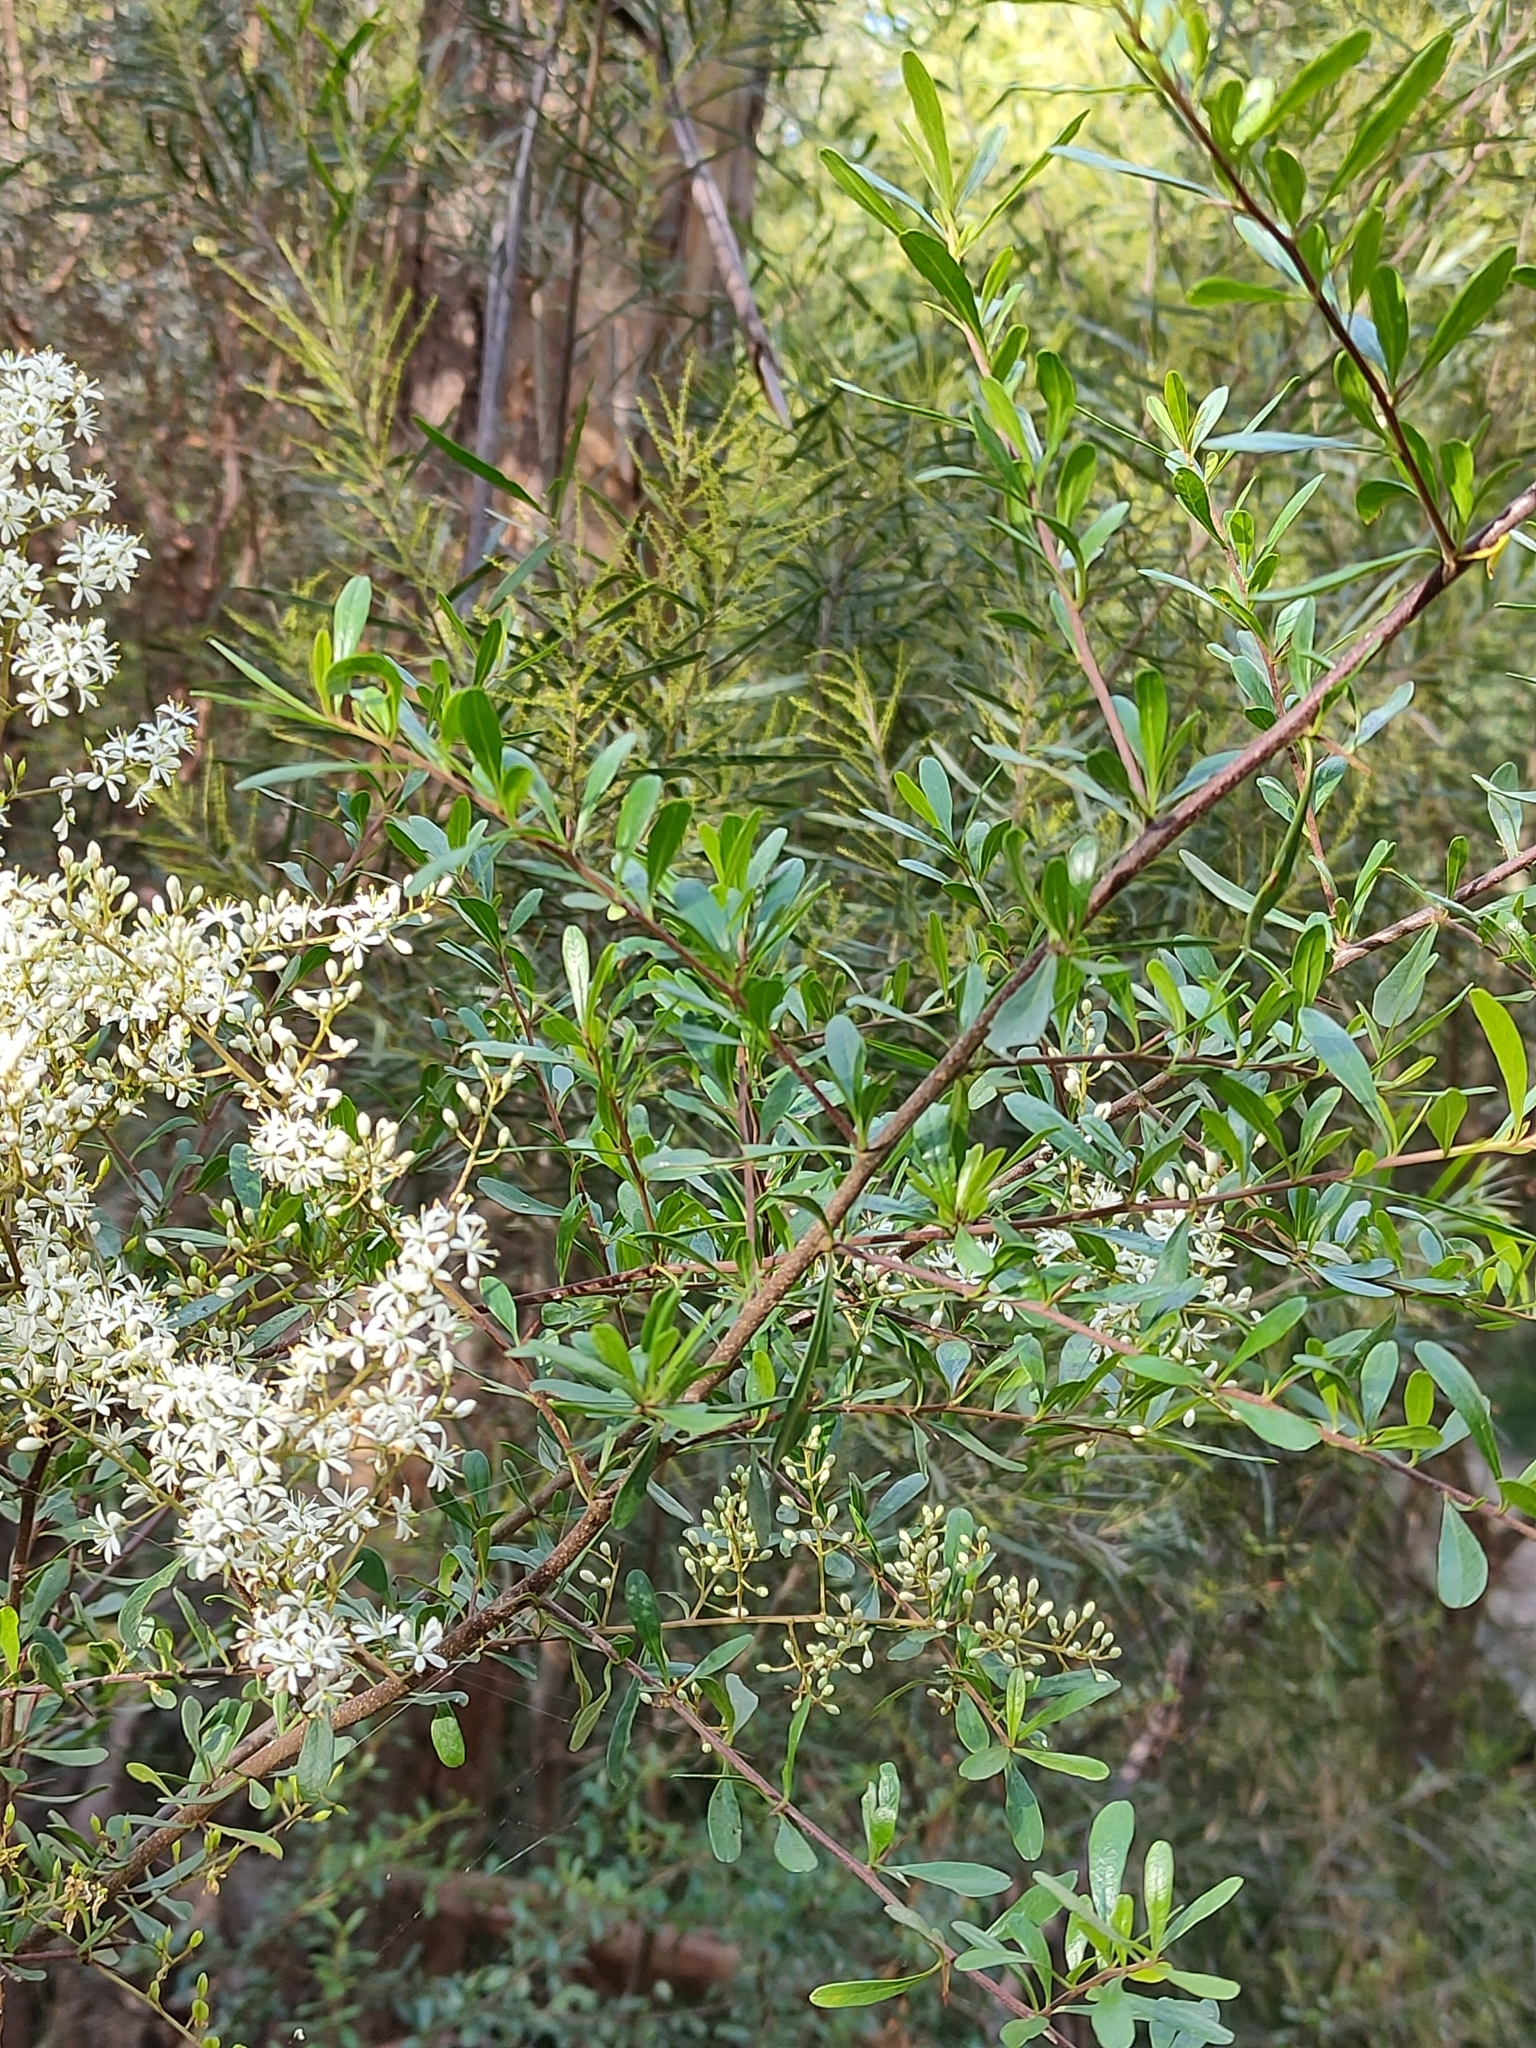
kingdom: Plantae
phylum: Tracheophyta
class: Magnoliopsida
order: Apiales
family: Pittosporaceae
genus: Bursaria
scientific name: Bursaria spinosa
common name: Australian blackthorn
